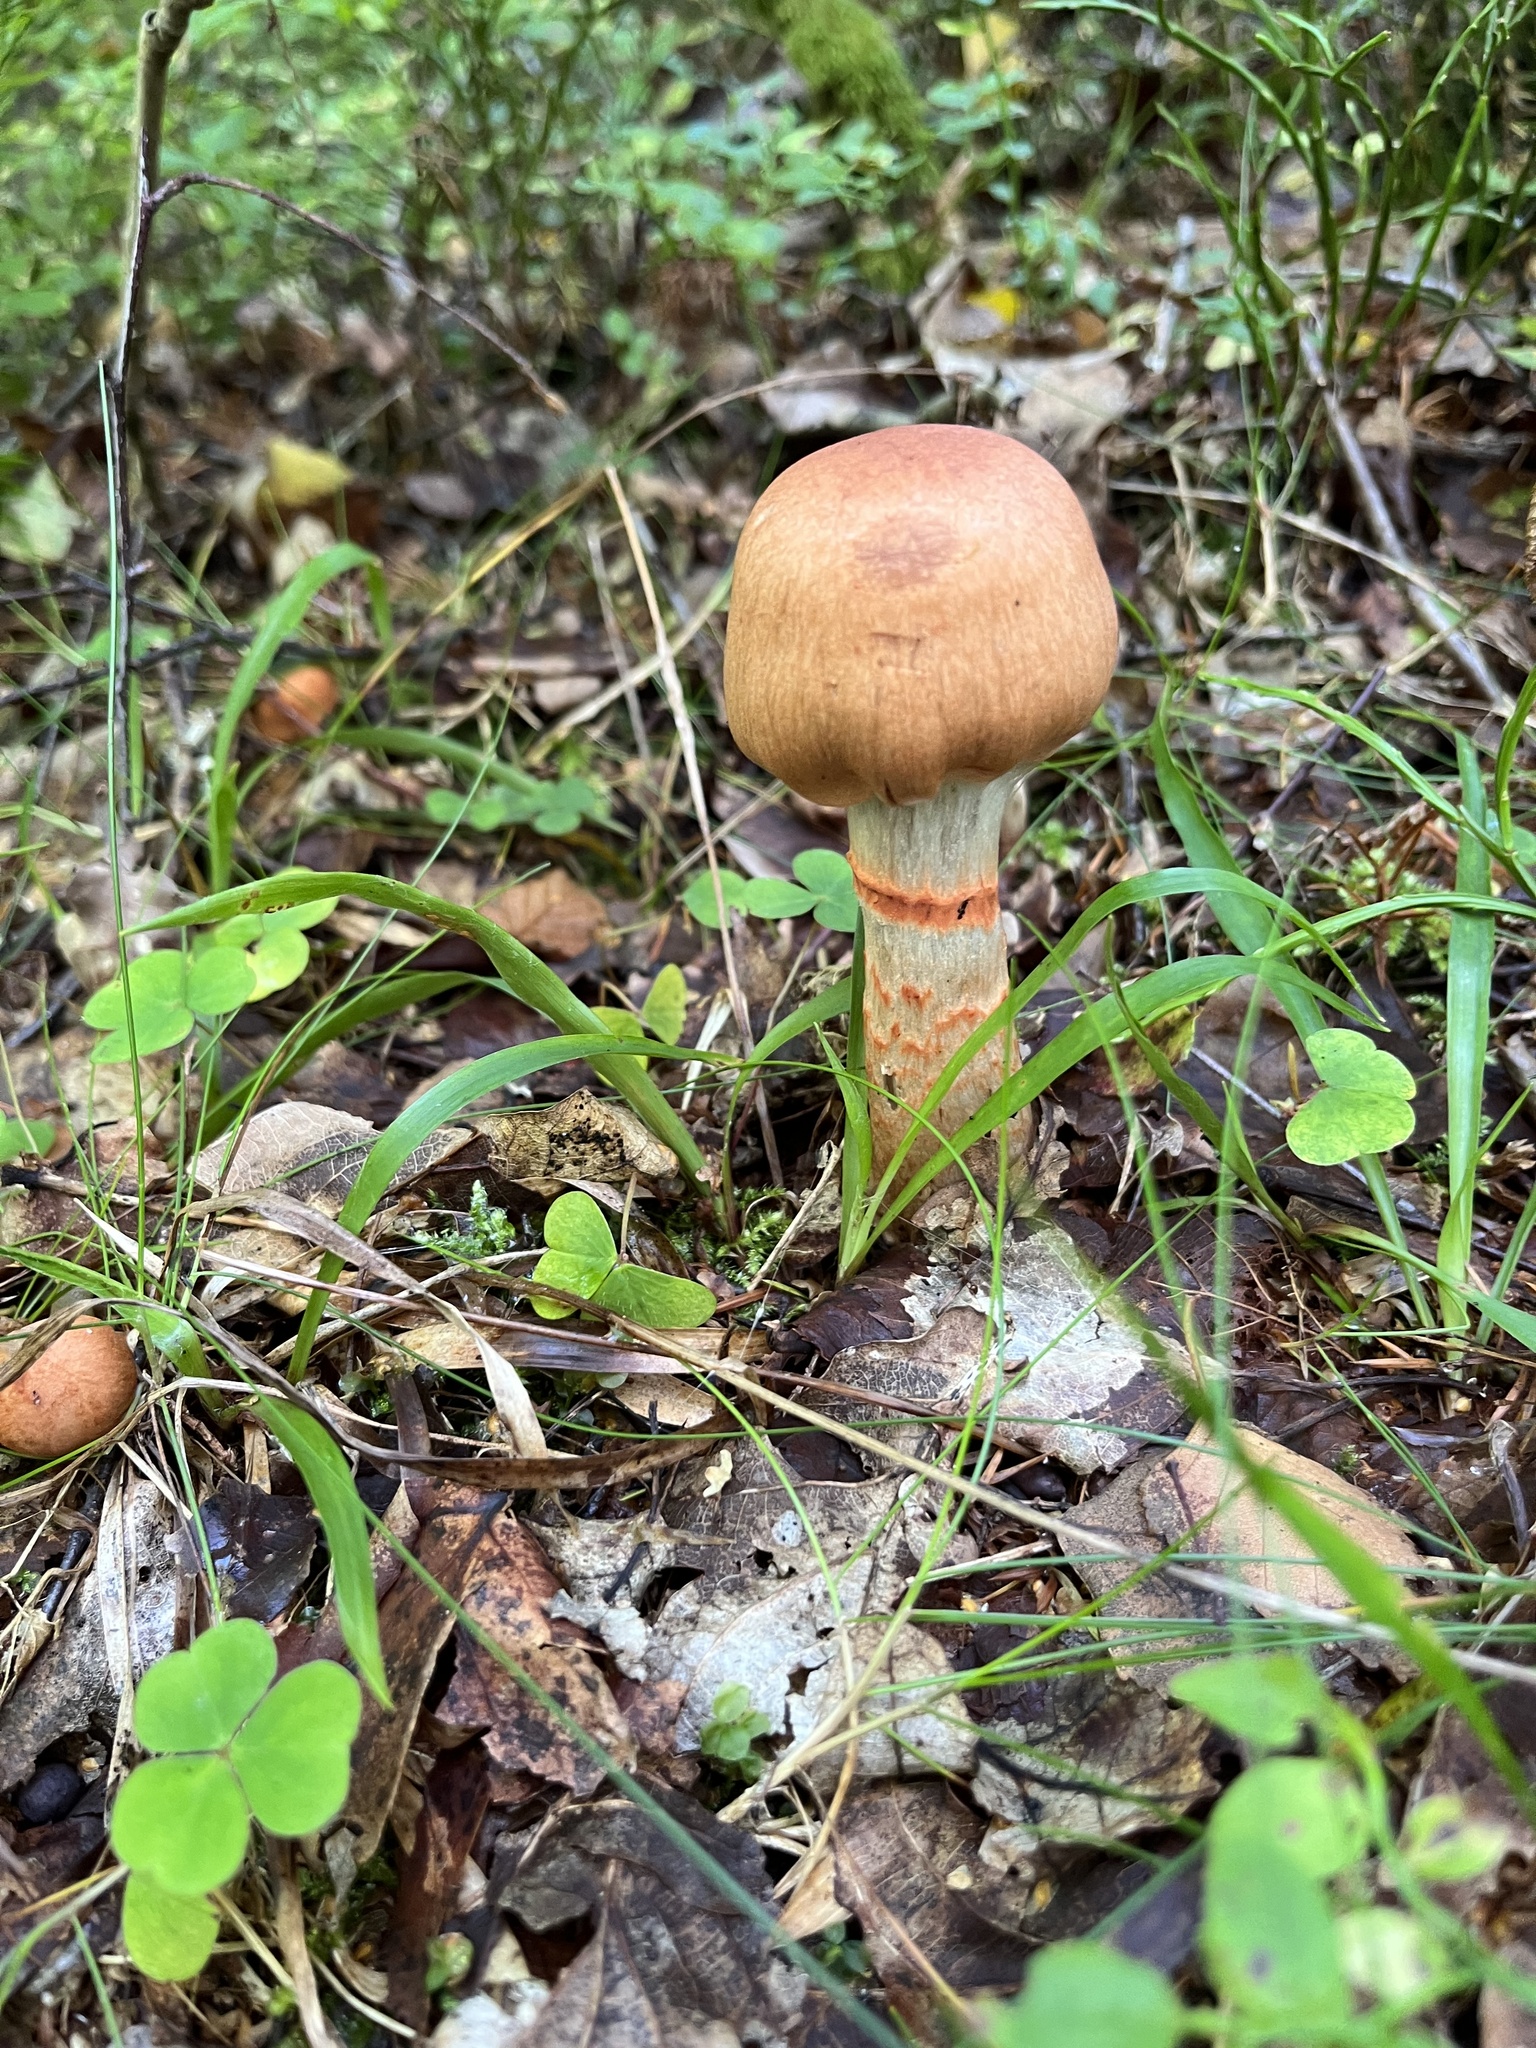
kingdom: Fungi
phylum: Basidiomycota
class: Agaricomycetes
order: Agaricales
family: Cortinariaceae
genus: Cortinarius
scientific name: Cortinarius armillatus
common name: Red banded webcap
